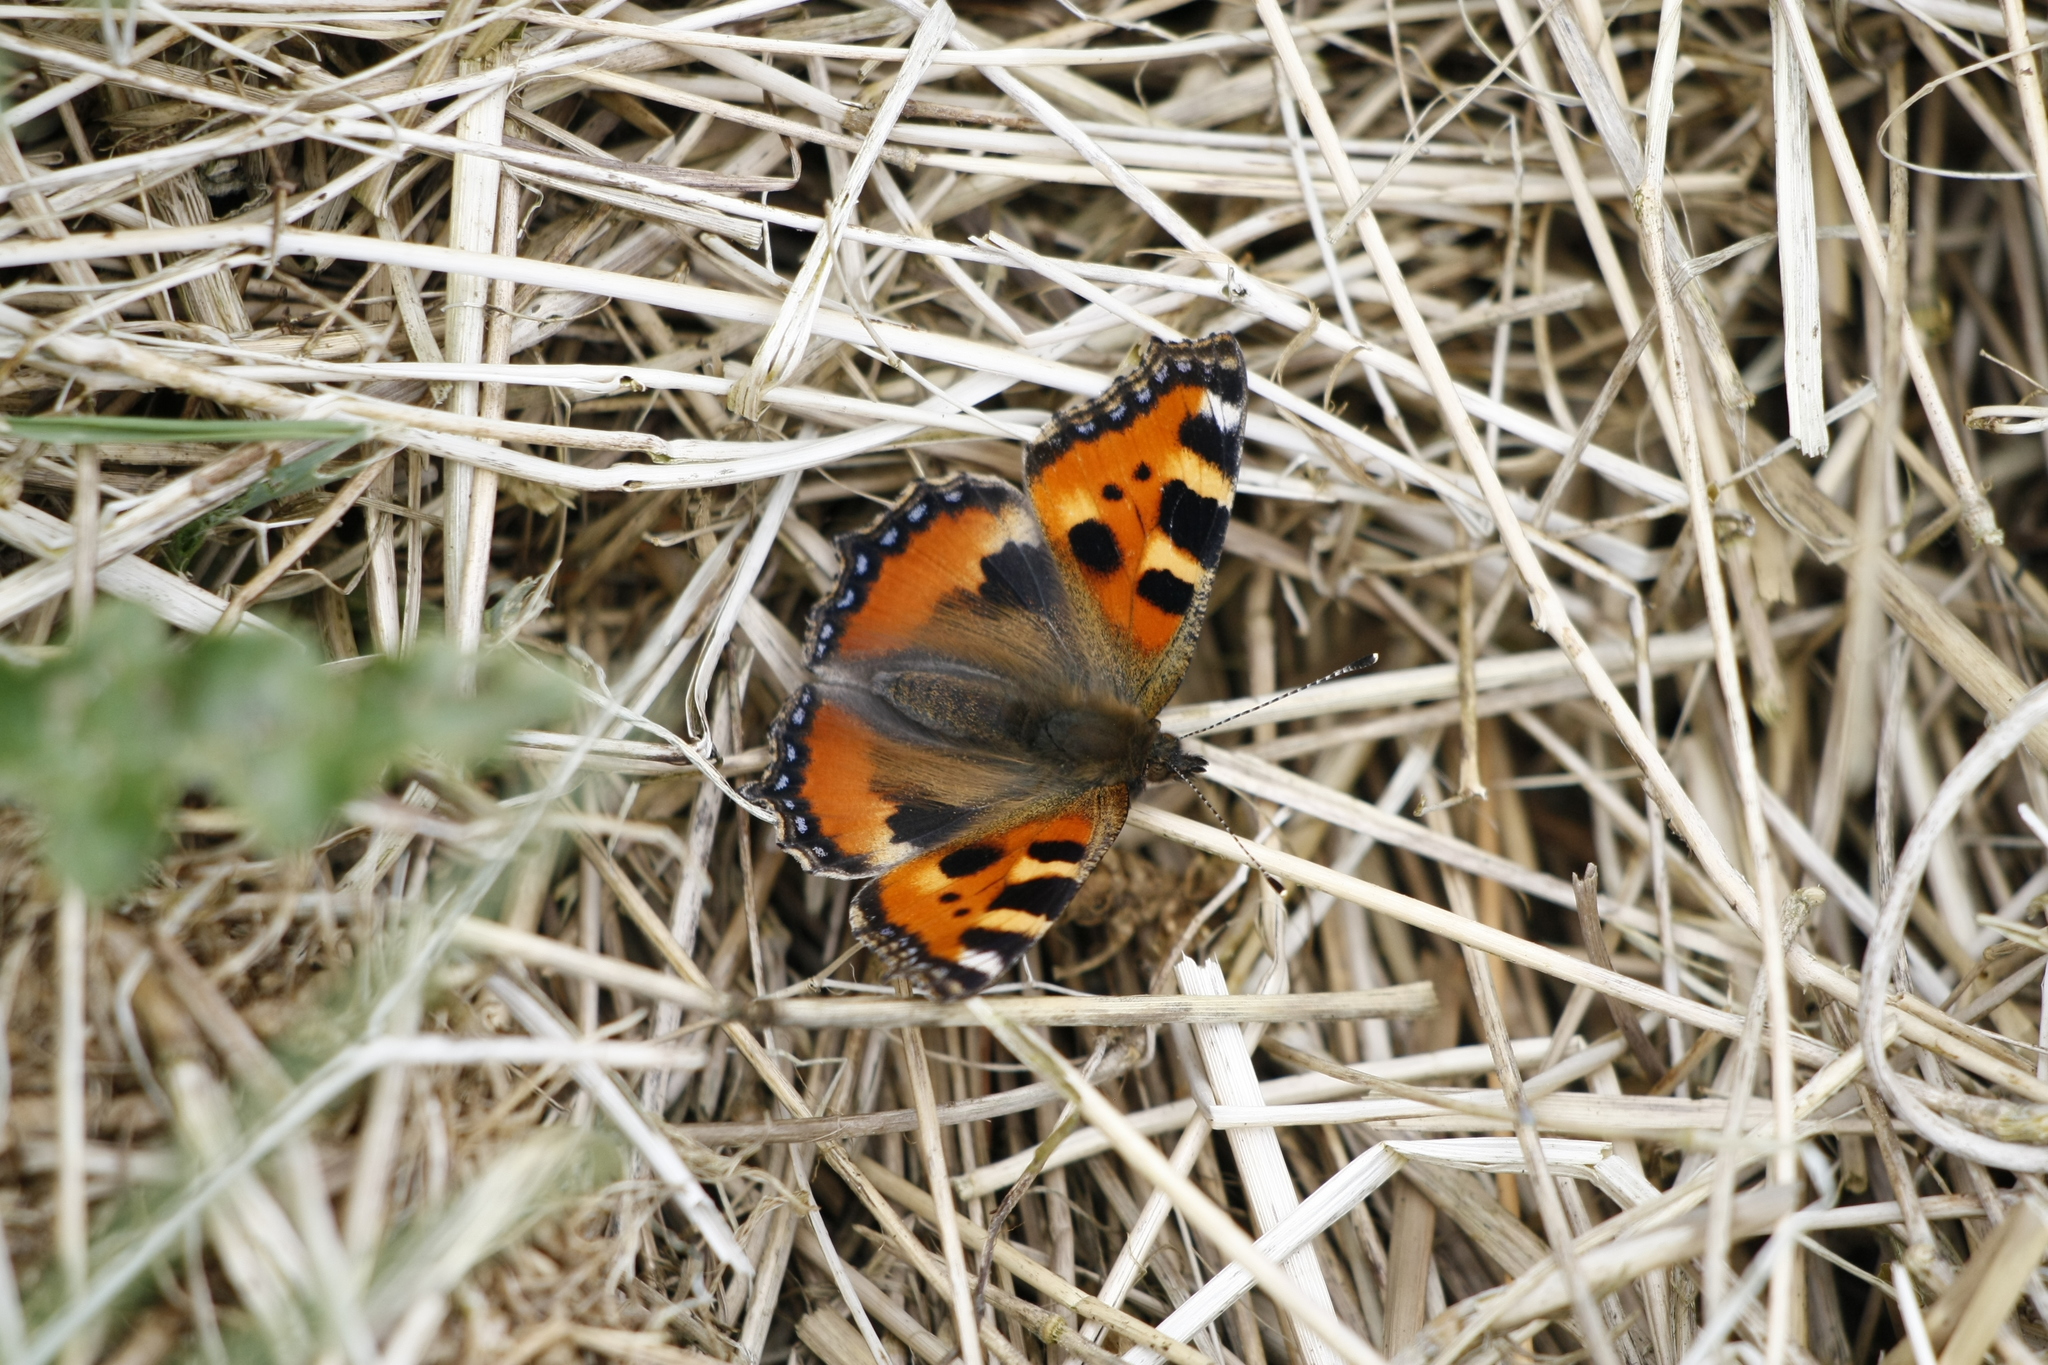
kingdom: Animalia
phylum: Arthropoda
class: Insecta
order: Lepidoptera
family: Nymphalidae
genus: Aglais
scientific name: Aglais urticae
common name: Small tortoiseshell
